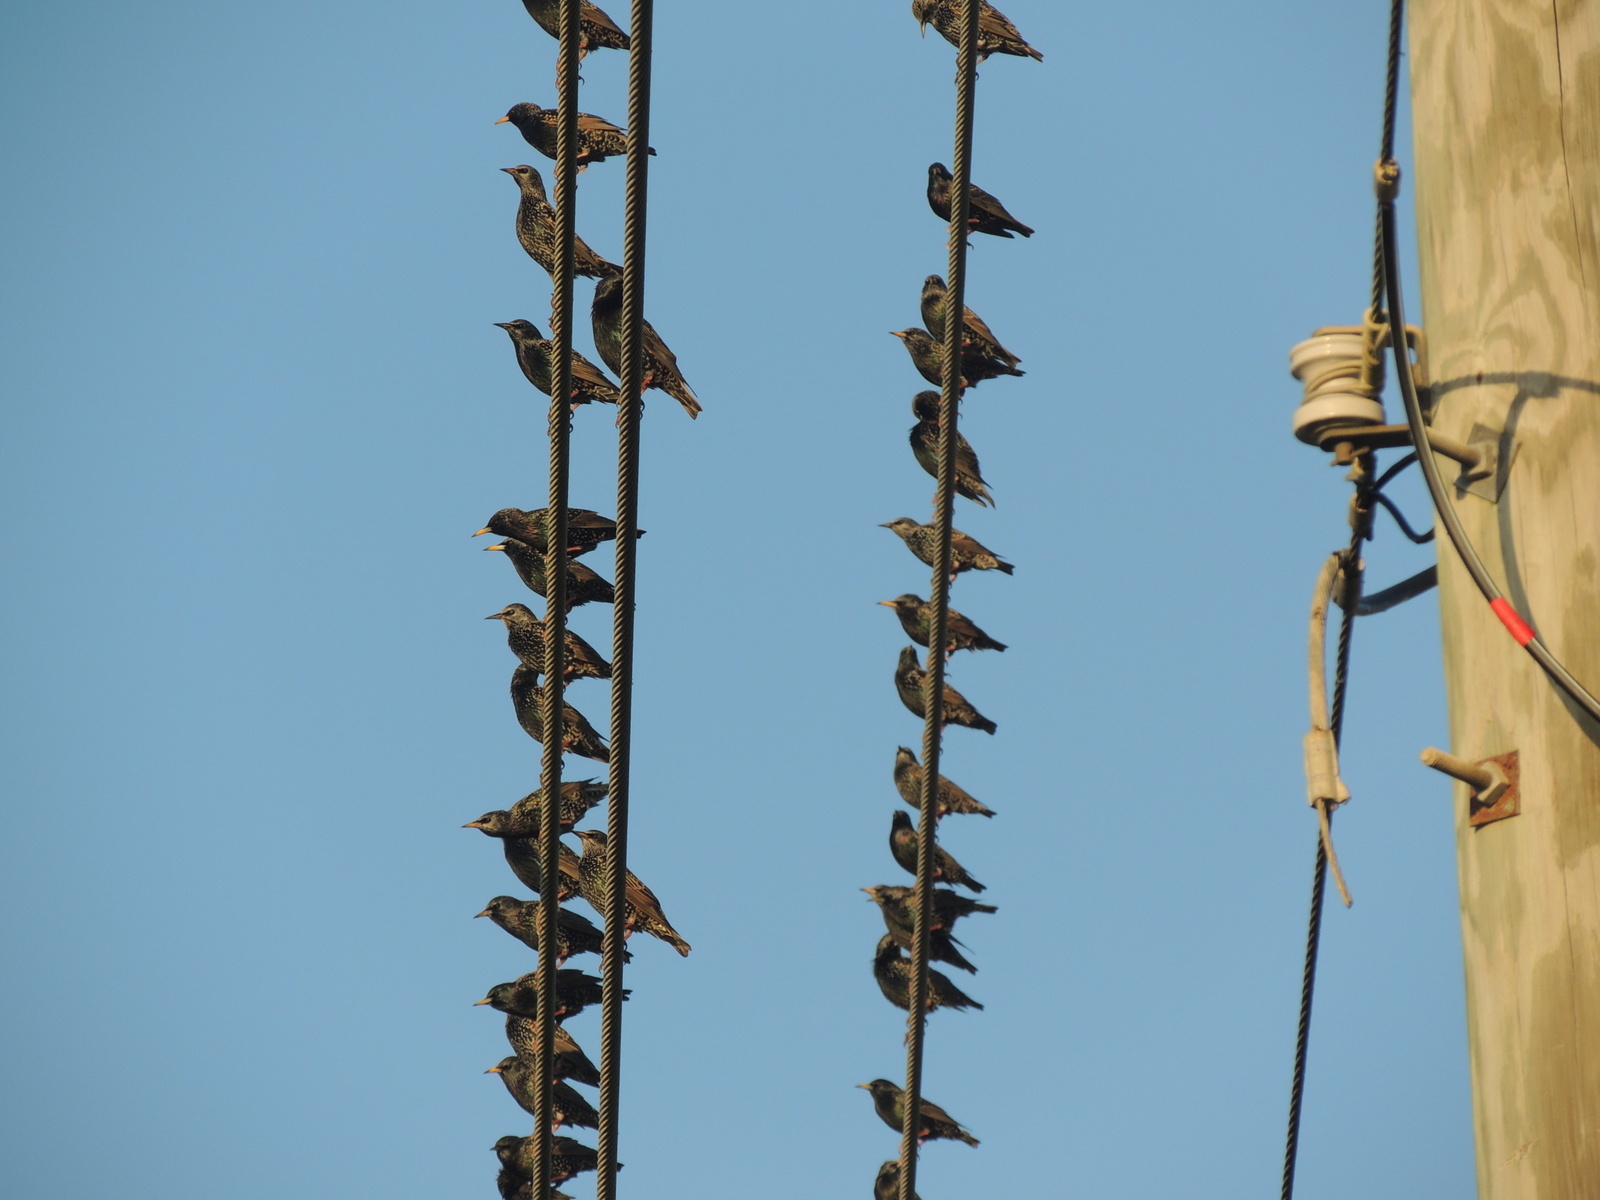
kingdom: Animalia
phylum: Chordata
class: Aves
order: Passeriformes
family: Sturnidae
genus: Sturnus
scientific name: Sturnus vulgaris
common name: Common starling
